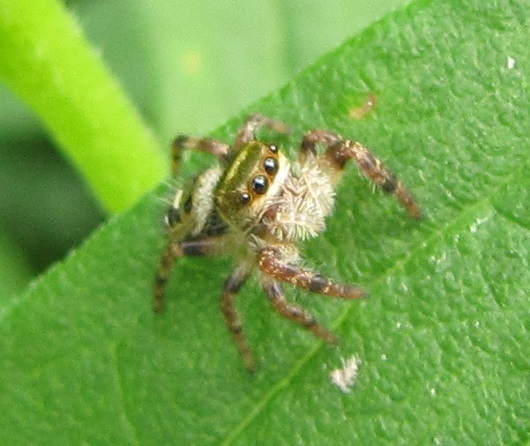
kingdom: Animalia
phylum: Arthropoda
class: Arachnida
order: Araneae
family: Salticidae
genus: Phidippus
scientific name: Phidippus princeps
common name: Grayish jumping spider
